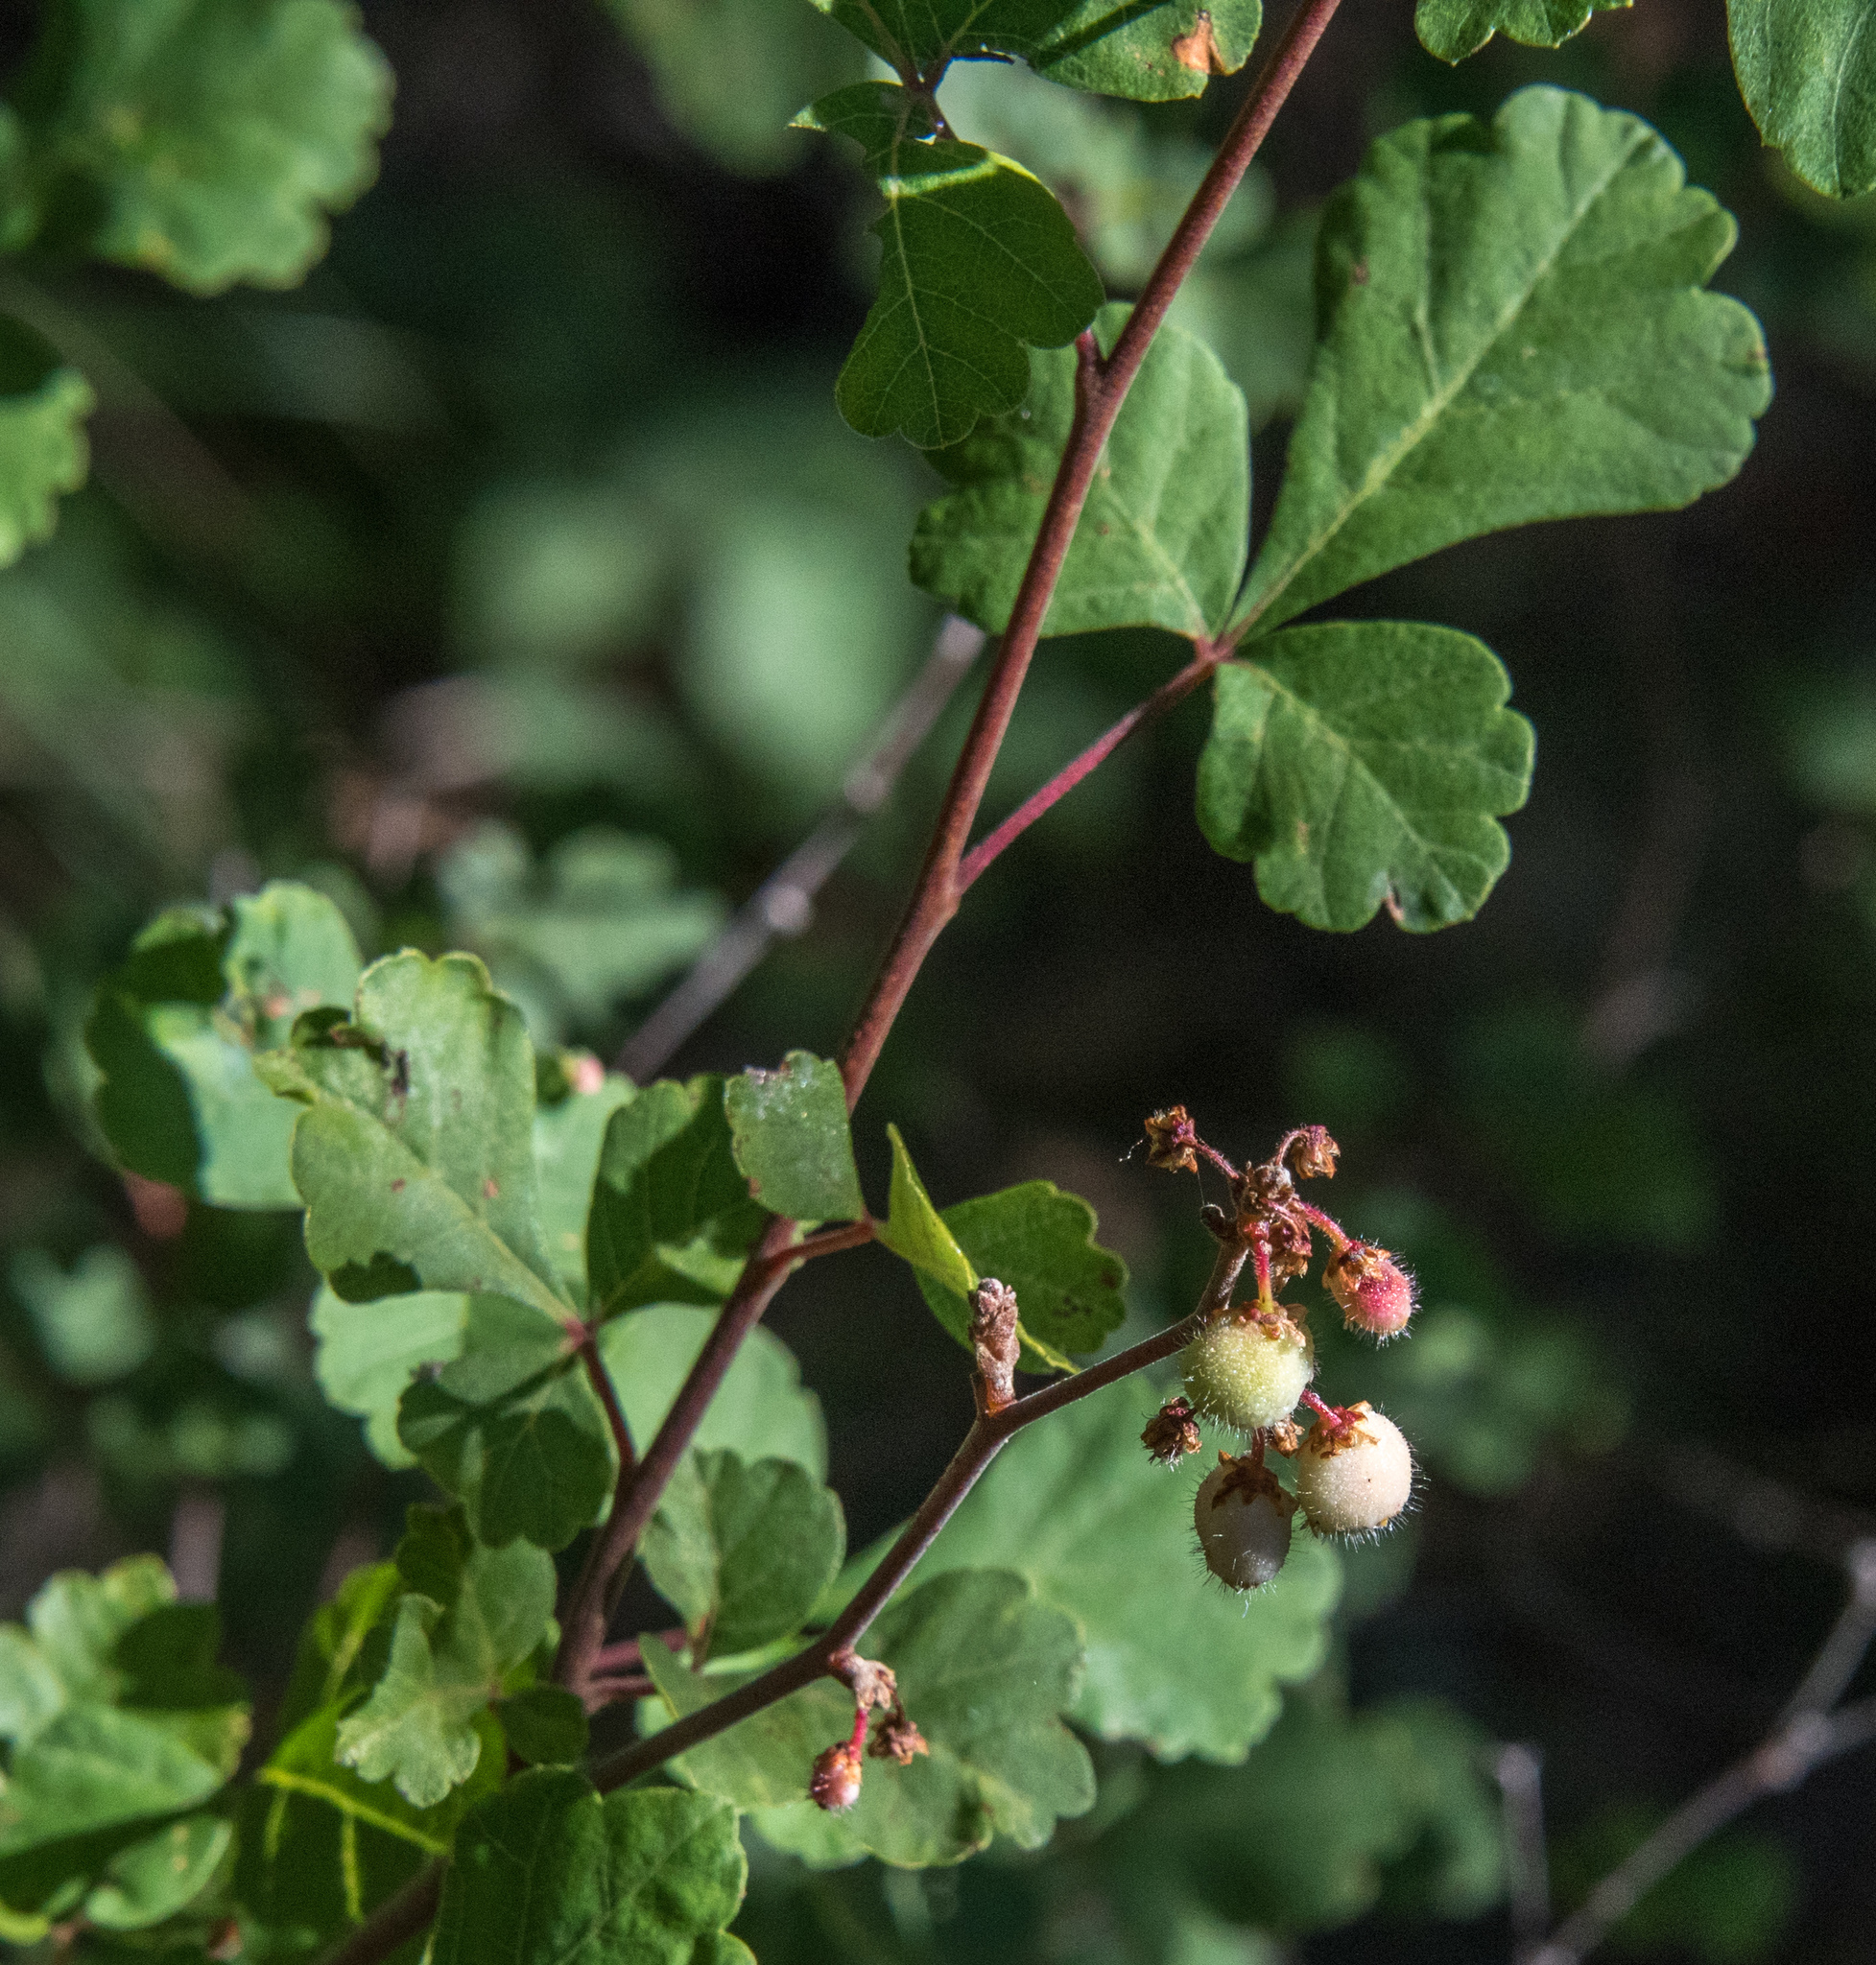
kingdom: Plantae
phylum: Tracheophyta
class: Magnoliopsida
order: Sapindales
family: Anacardiaceae
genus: Rhus
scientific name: Rhus aromatica
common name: Aromatic sumac
